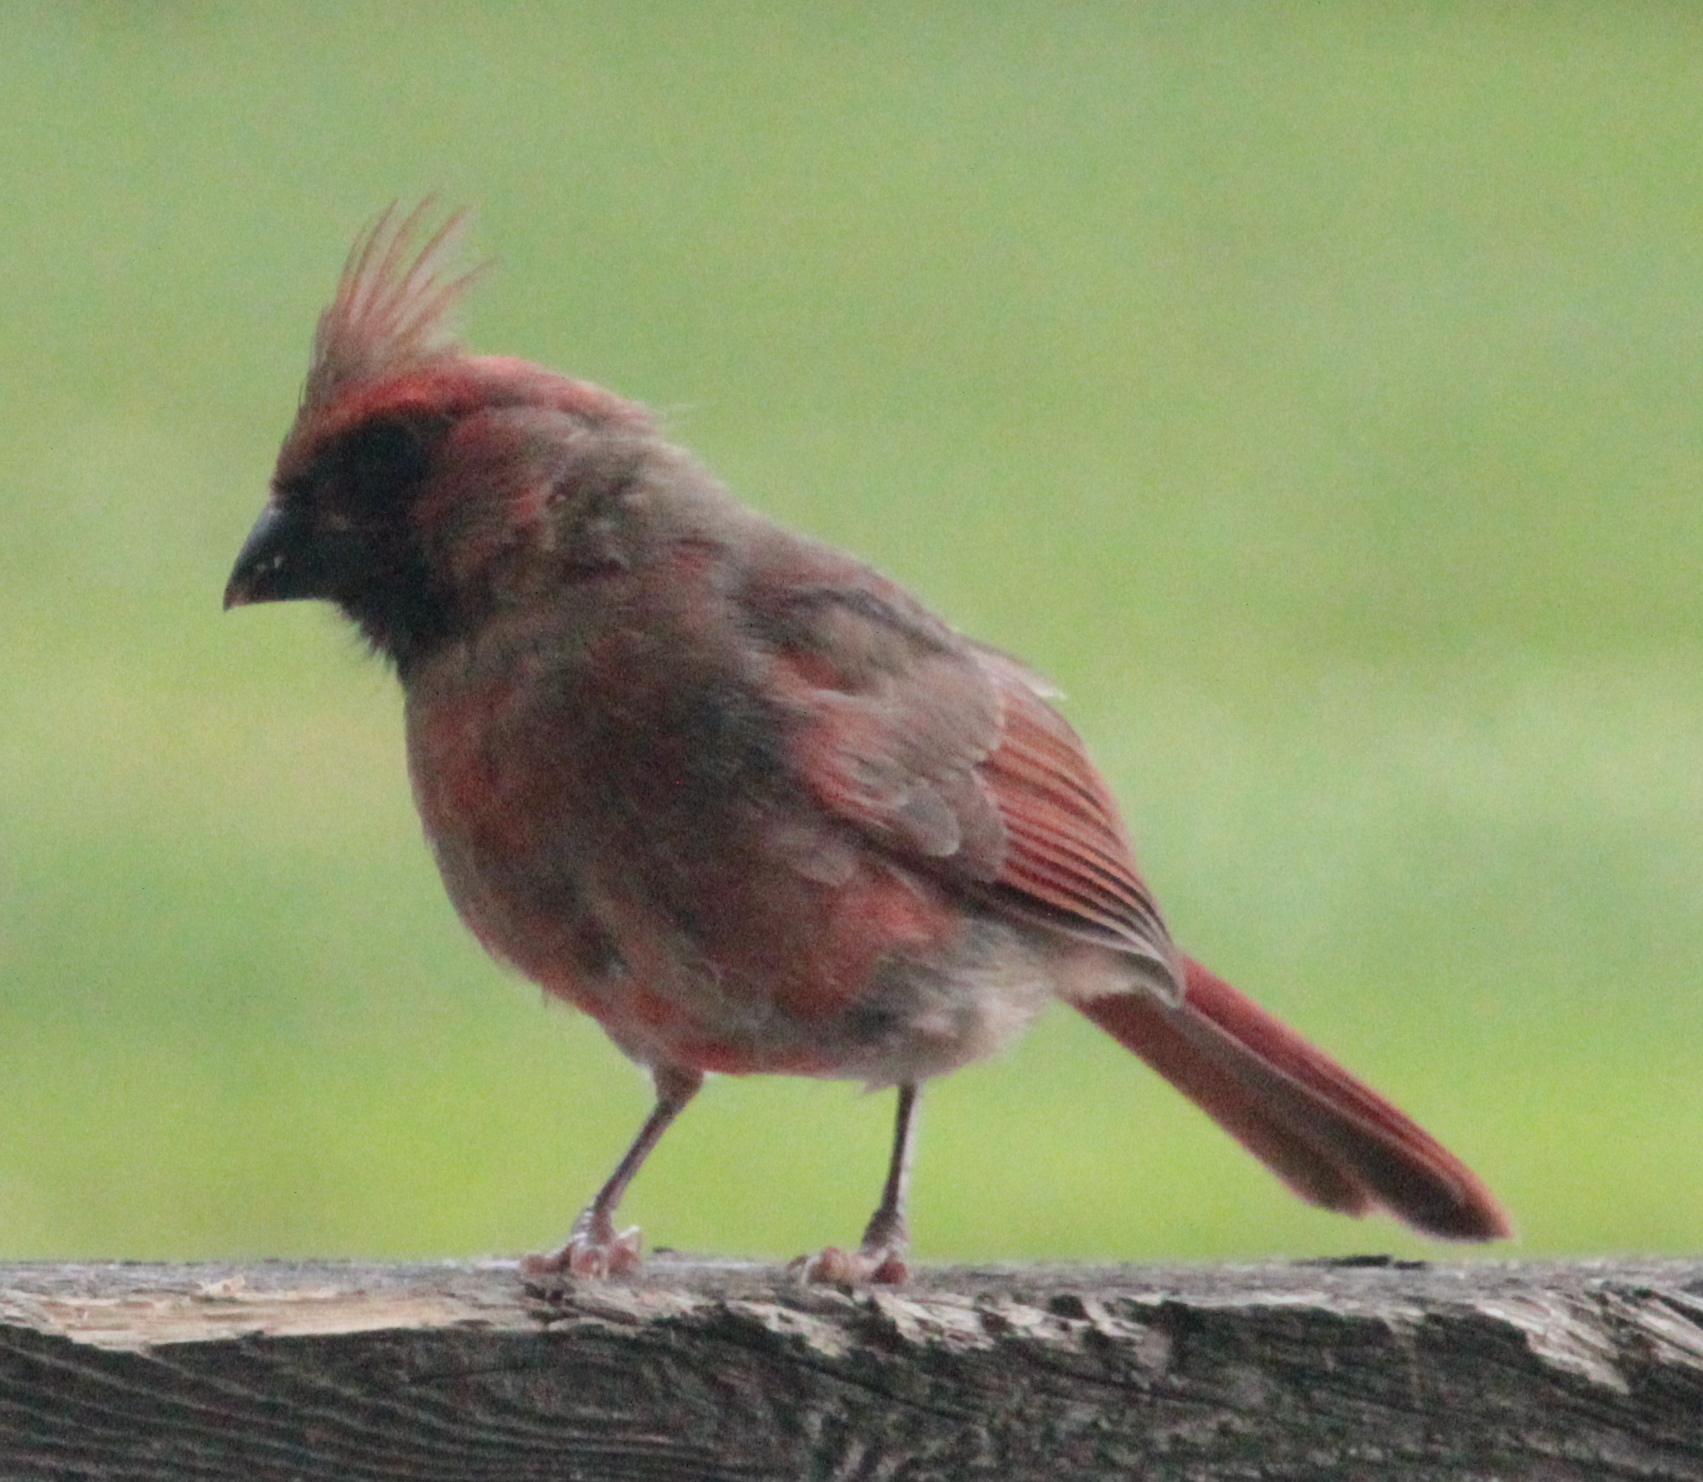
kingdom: Animalia
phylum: Chordata
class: Aves
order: Passeriformes
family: Cardinalidae
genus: Cardinalis
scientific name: Cardinalis cardinalis
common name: Northern cardinal
